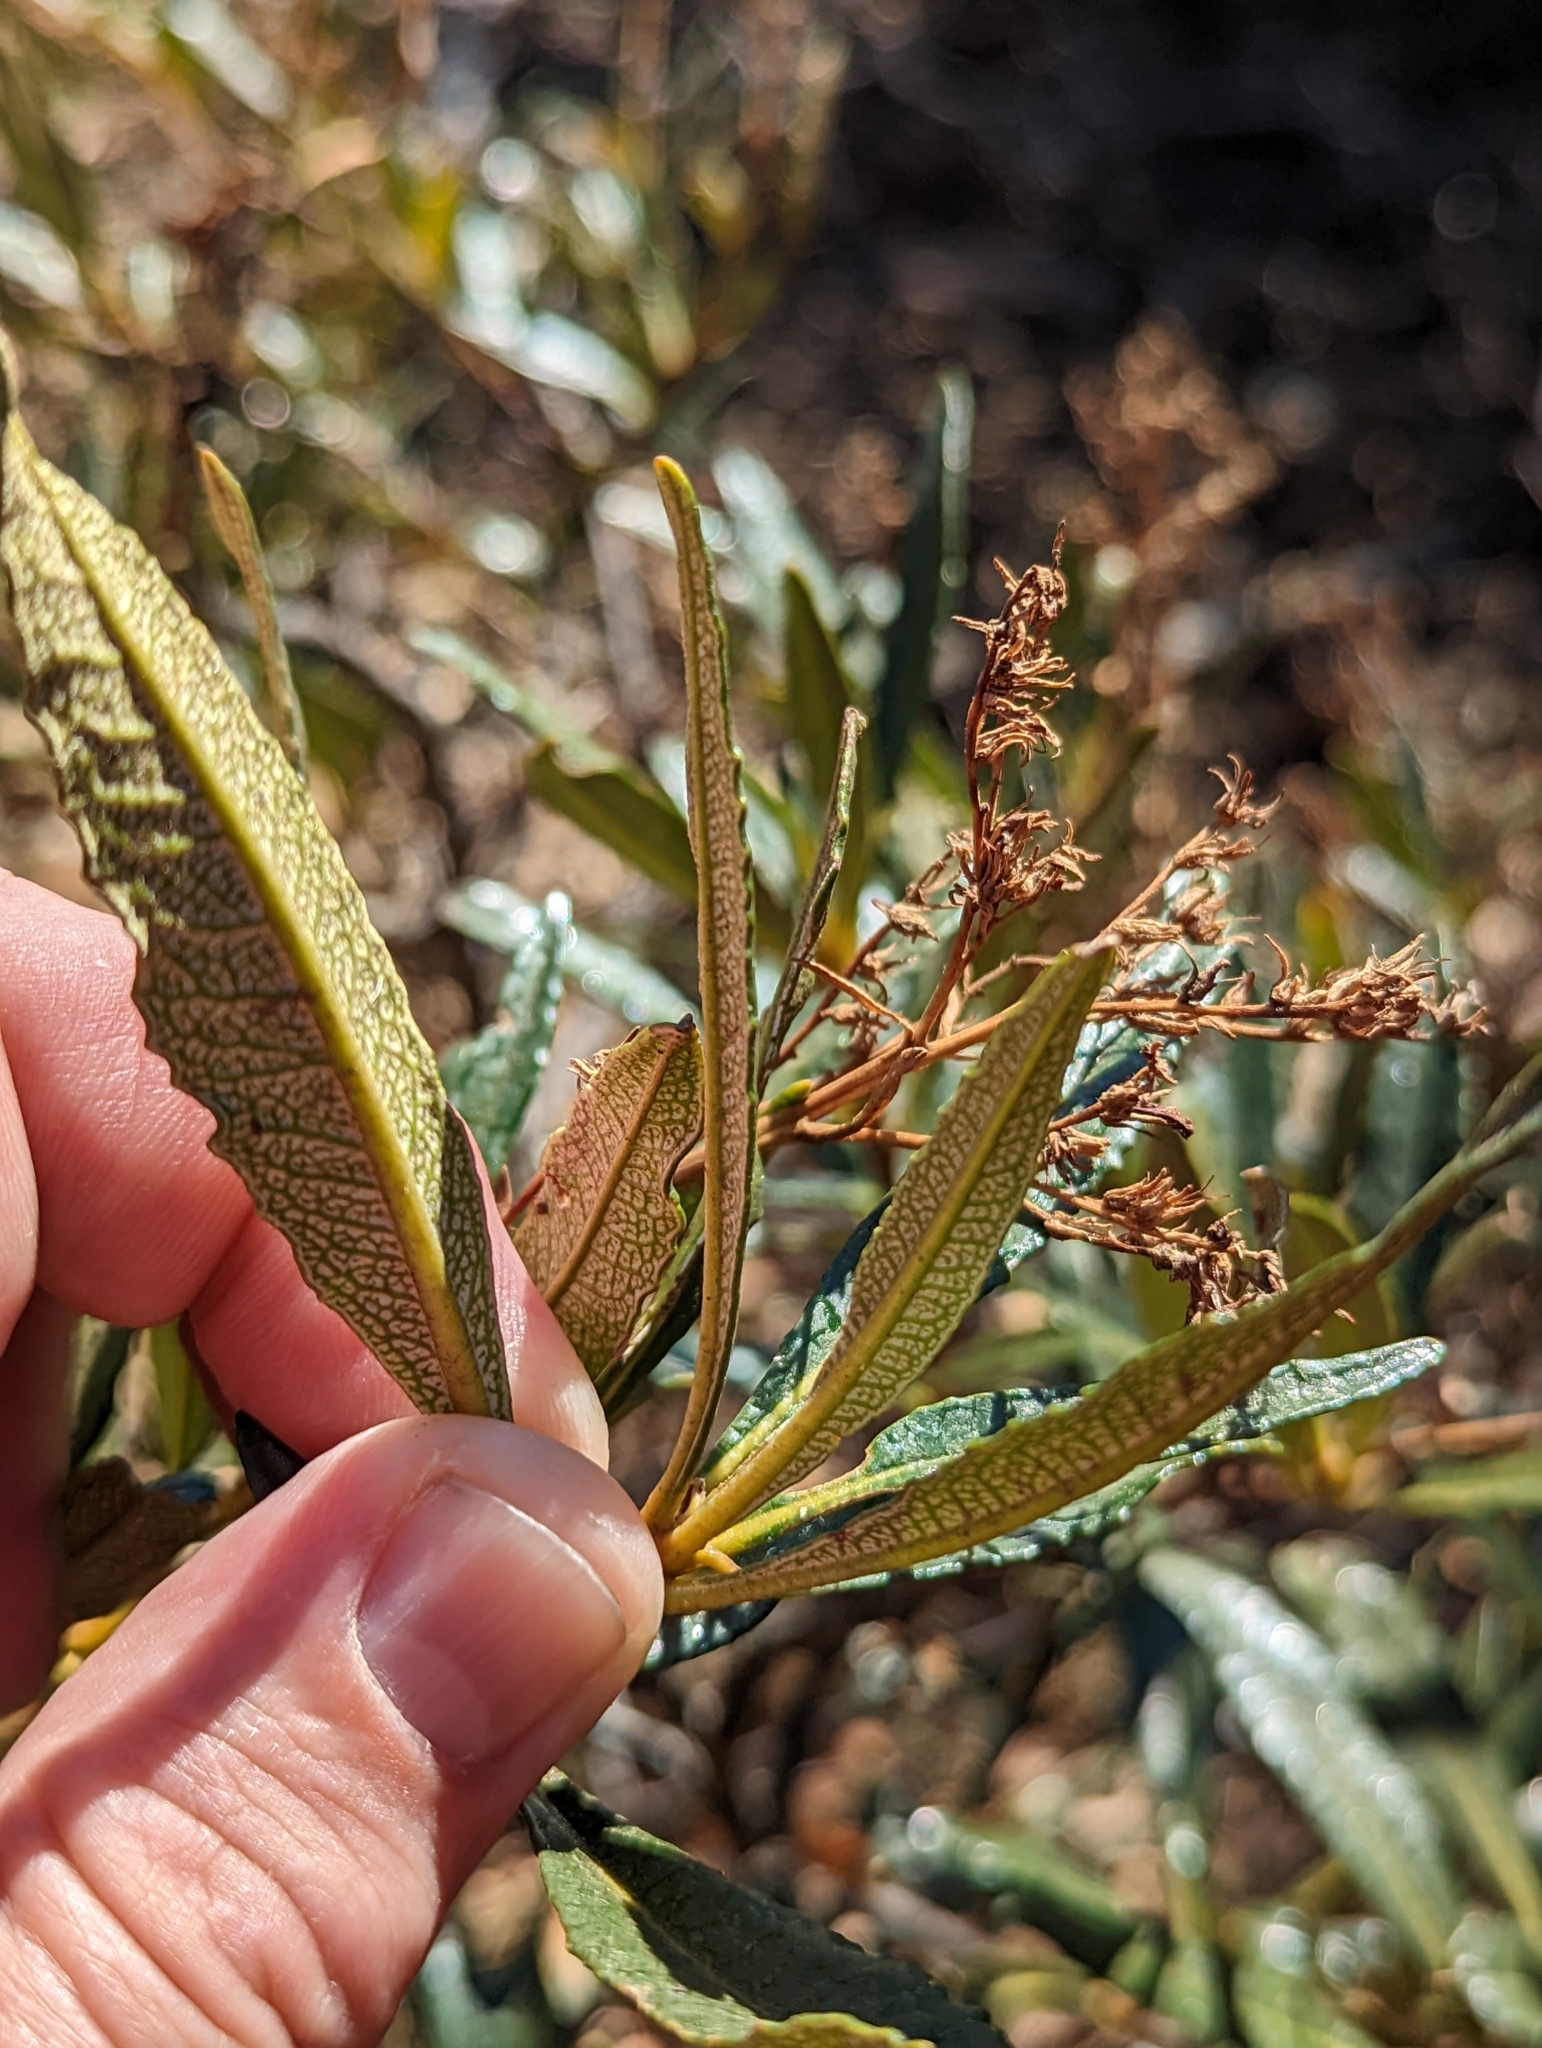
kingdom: Plantae
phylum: Tracheophyta
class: Magnoliopsida
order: Boraginales
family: Namaceae
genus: Eriodictyon
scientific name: Eriodictyon californicum
